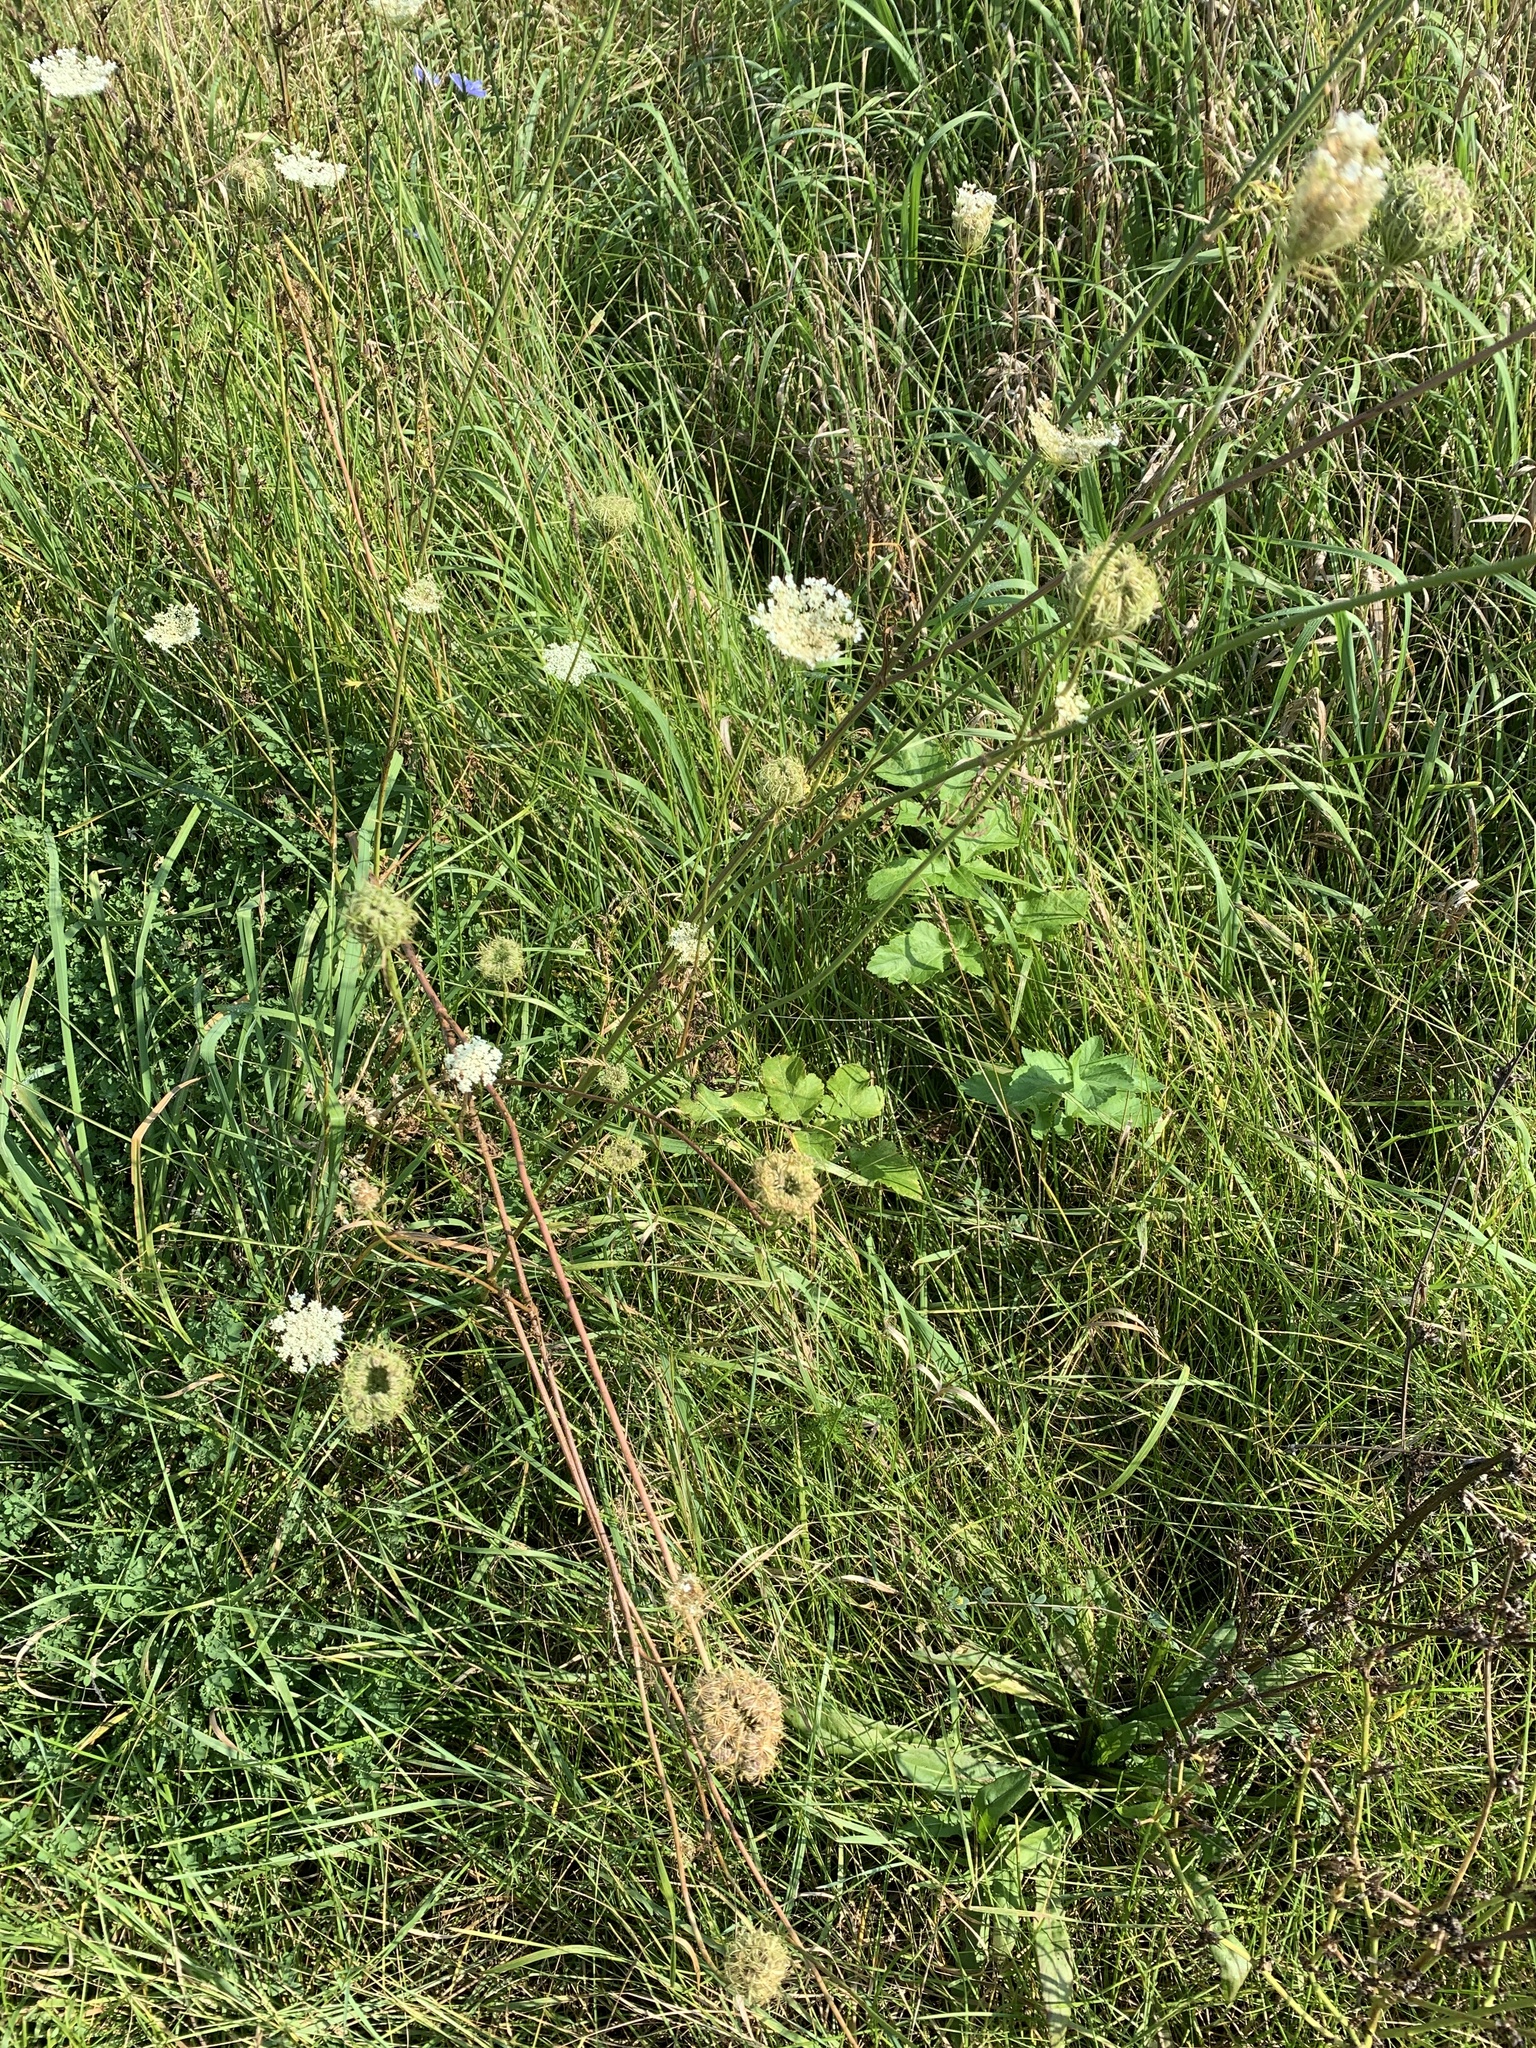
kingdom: Plantae
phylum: Tracheophyta
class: Magnoliopsida
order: Apiales
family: Apiaceae
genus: Daucus
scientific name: Daucus carota
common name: Wild carrot
